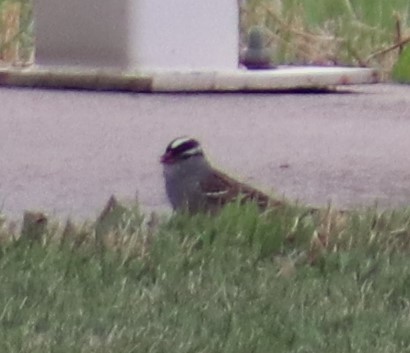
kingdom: Animalia
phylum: Chordata
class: Aves
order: Passeriformes
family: Passerellidae
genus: Zonotrichia
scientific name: Zonotrichia leucophrys
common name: White-crowned sparrow
